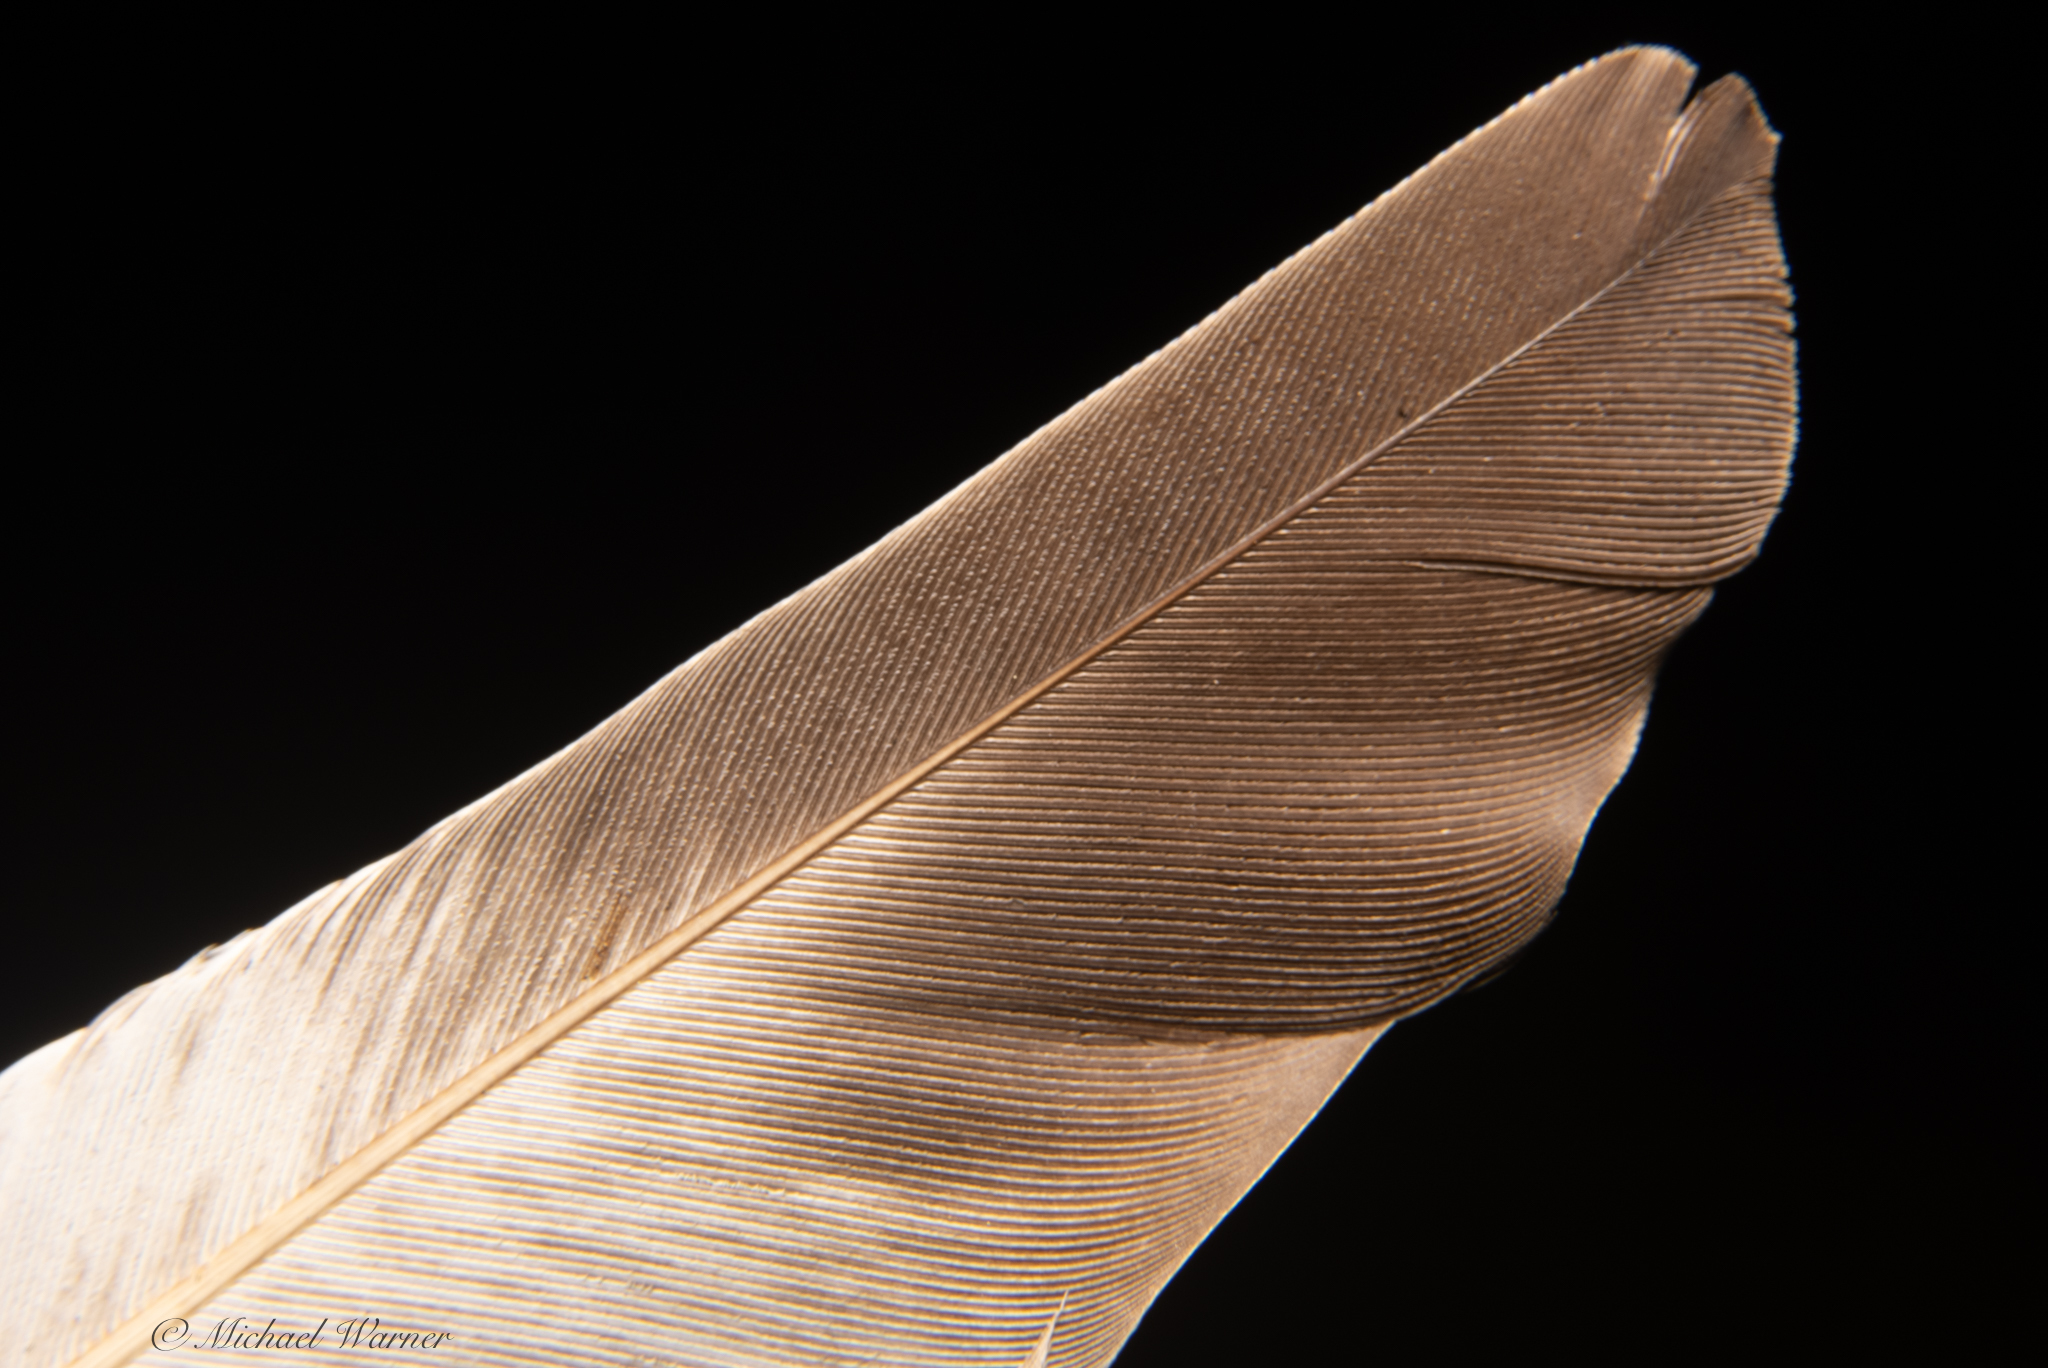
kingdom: Animalia
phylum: Chordata
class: Aves
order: Columbiformes
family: Columbidae
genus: Columba
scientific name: Columba livia
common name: Rock pigeon
